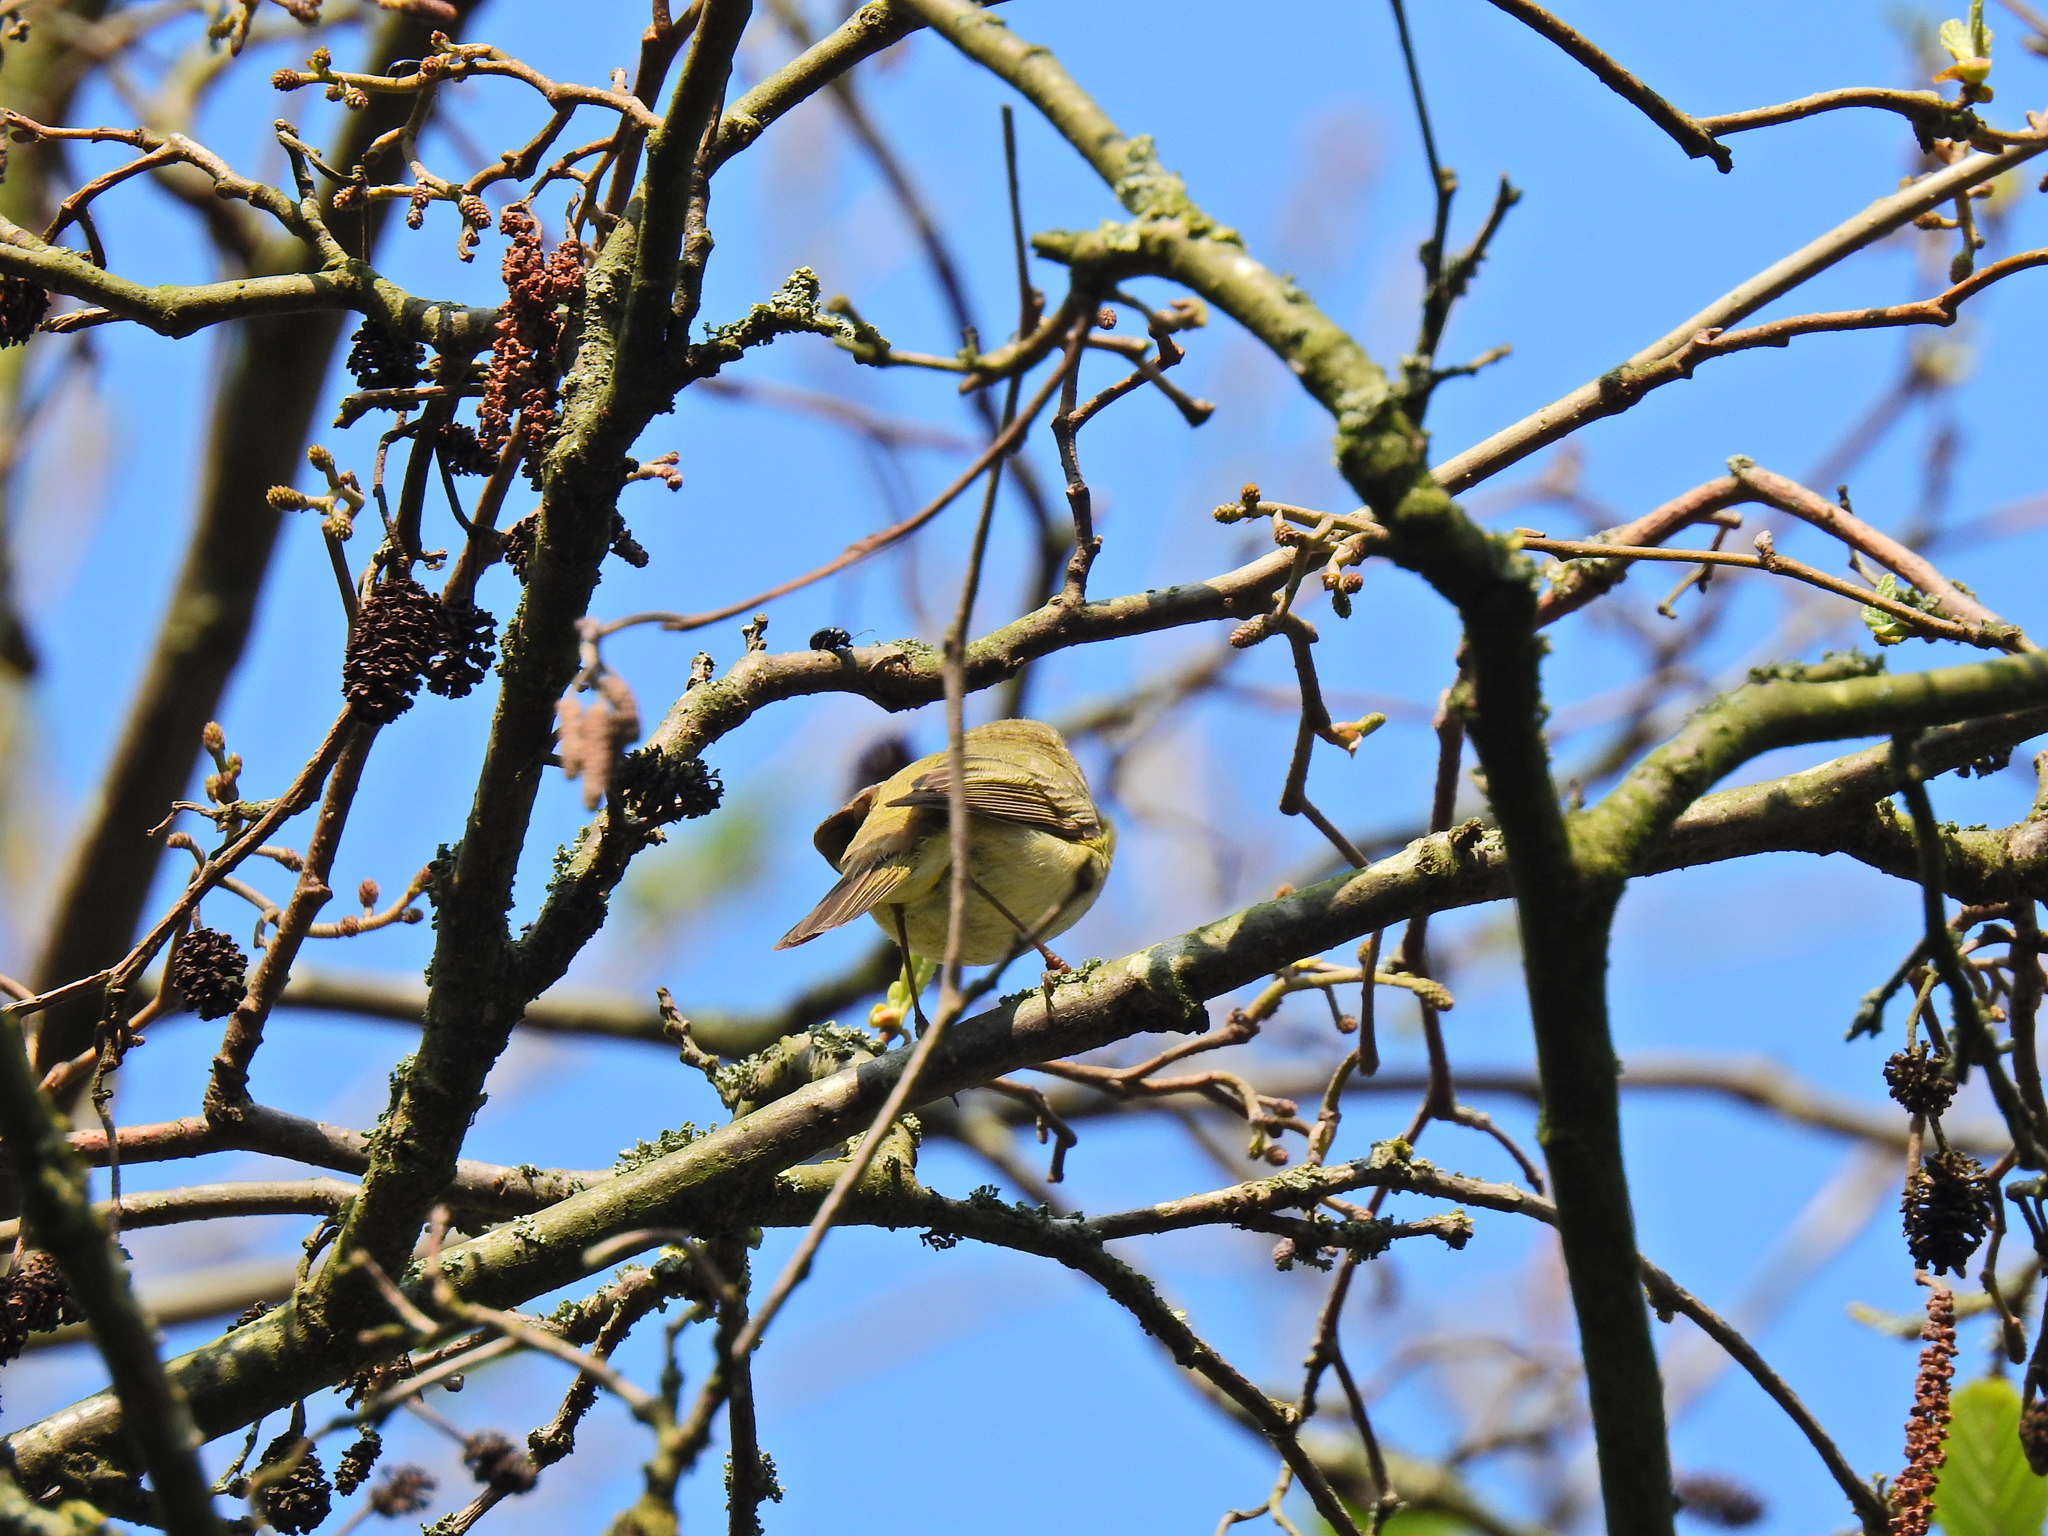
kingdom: Animalia
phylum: Chordata
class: Aves
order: Passeriformes
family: Phylloscopidae
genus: Phylloscopus
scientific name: Phylloscopus collybita
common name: Common chiffchaff
